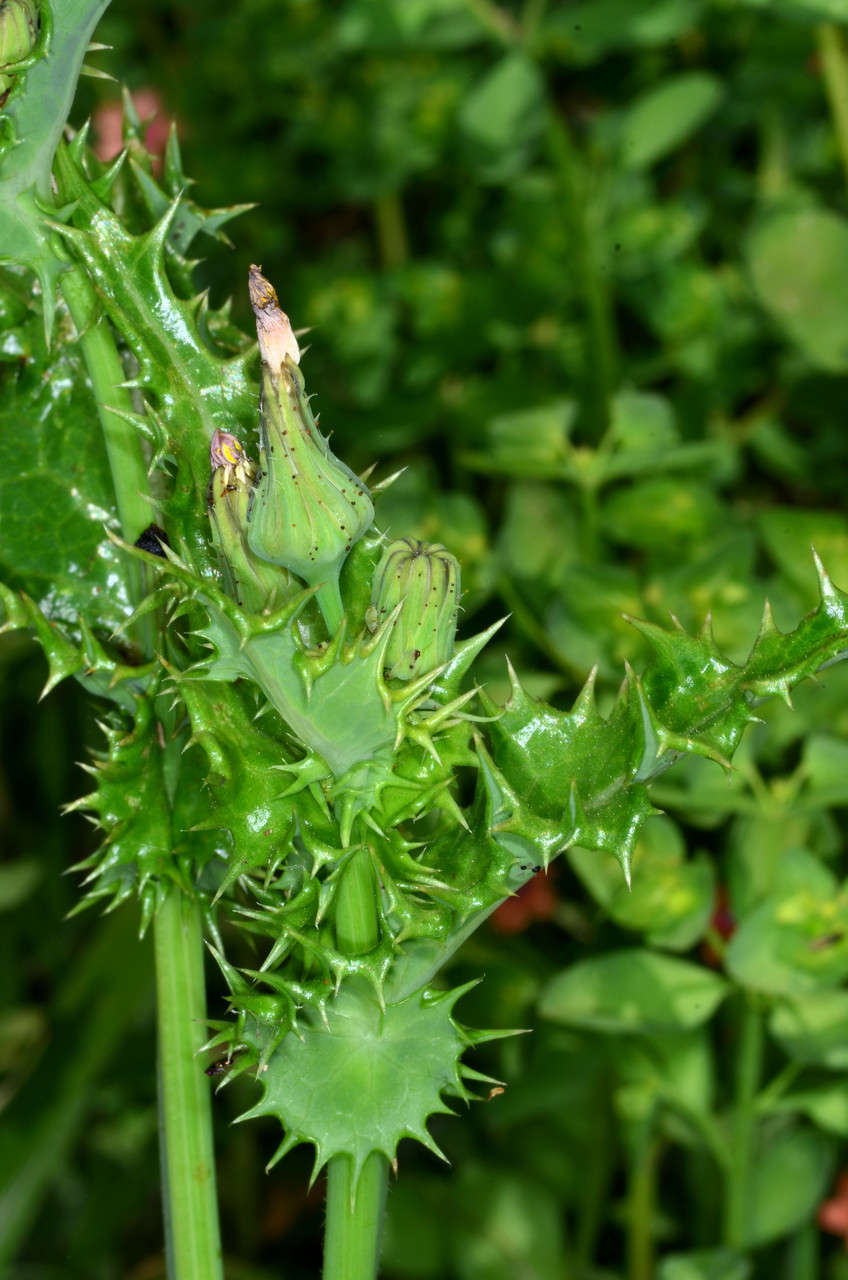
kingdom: Plantae
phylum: Tracheophyta
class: Magnoliopsida
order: Asterales
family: Asteraceae
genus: Sonchus
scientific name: Sonchus asper
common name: Prickly sow-thistle
